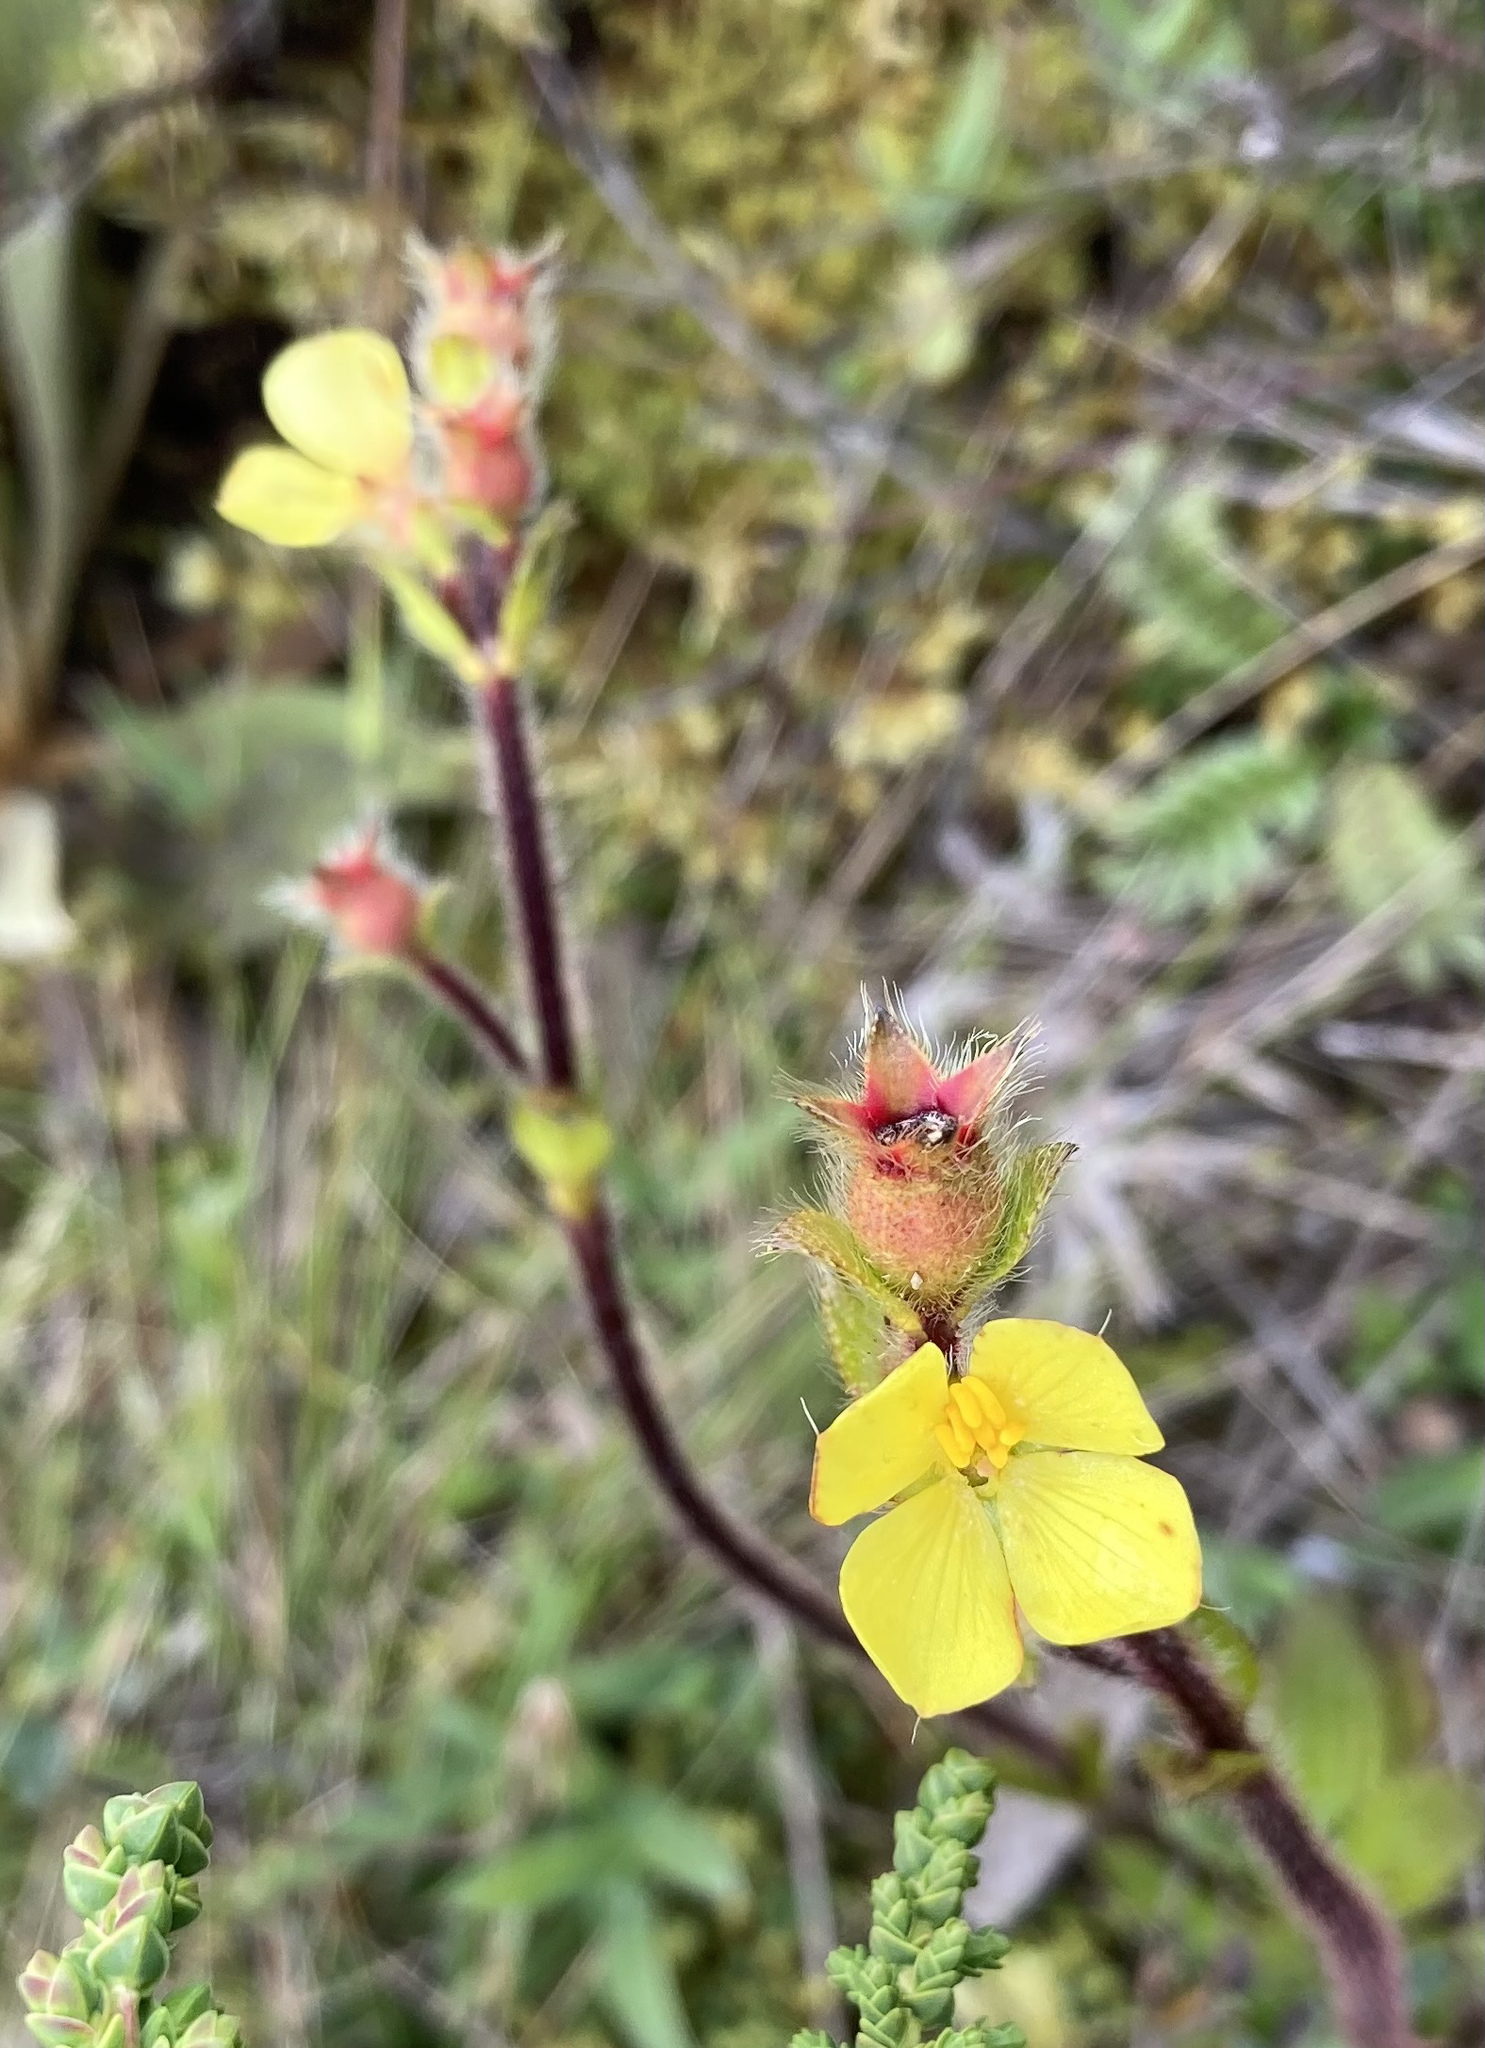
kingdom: Plantae
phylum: Tracheophyta
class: Magnoliopsida
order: Myrtales
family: Melastomataceae
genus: Castratella
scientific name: Castratella piloselloides
